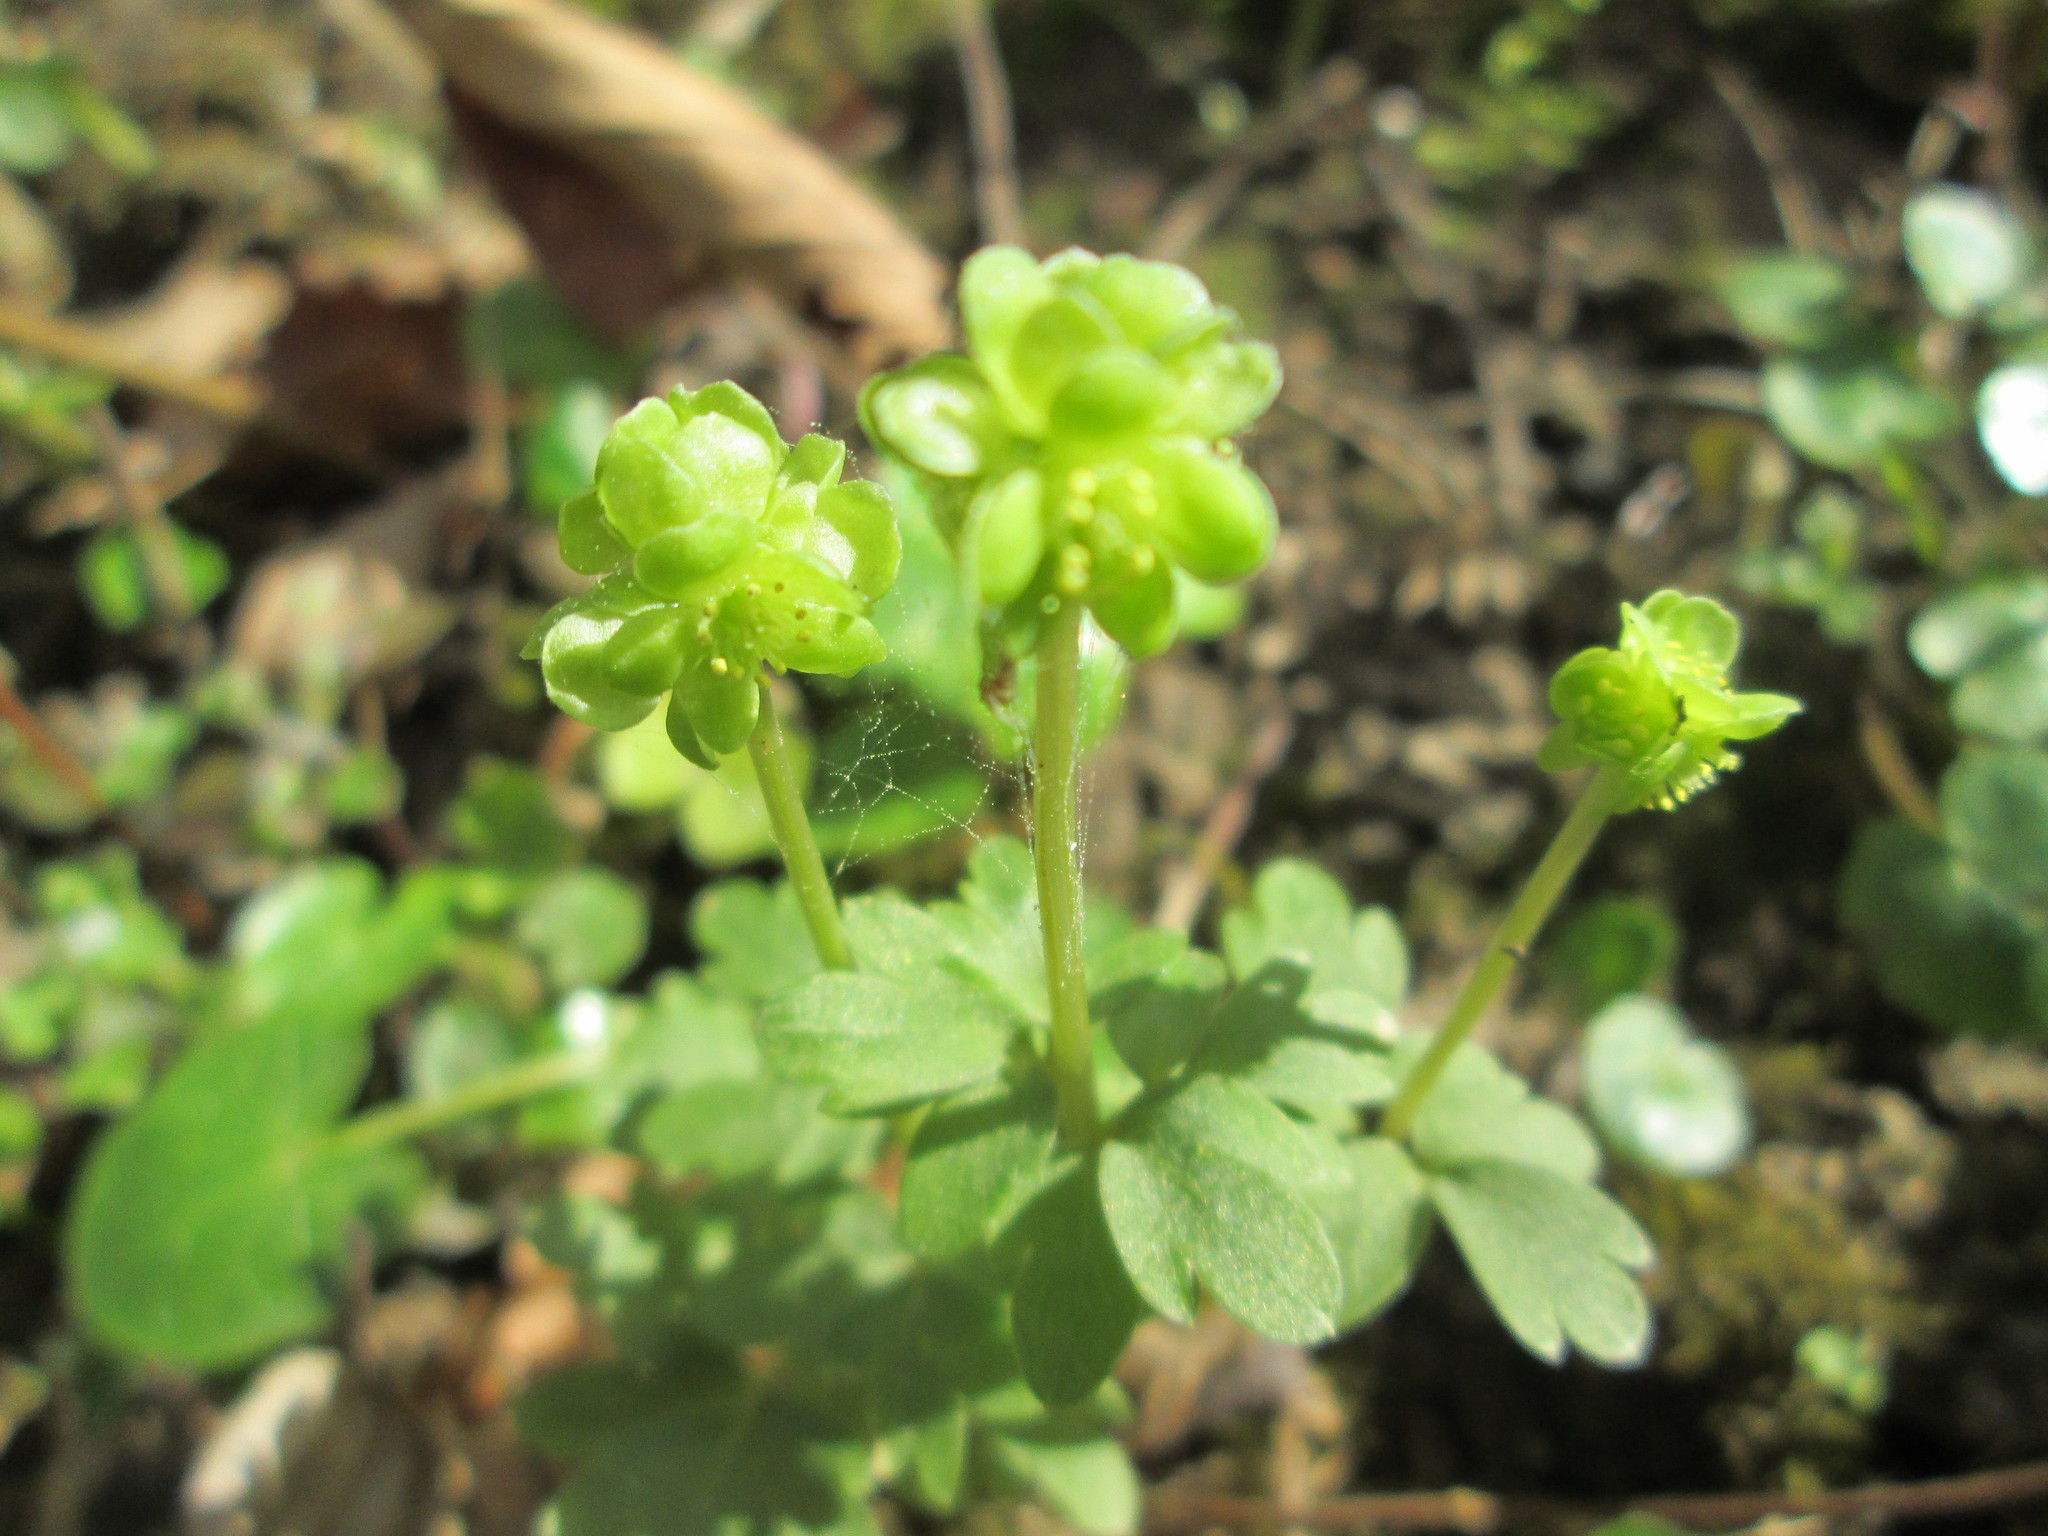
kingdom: Plantae
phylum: Tracheophyta
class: Magnoliopsida
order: Dipsacales
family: Viburnaceae
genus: Adoxa
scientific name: Adoxa moschatellina
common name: Moschatel
